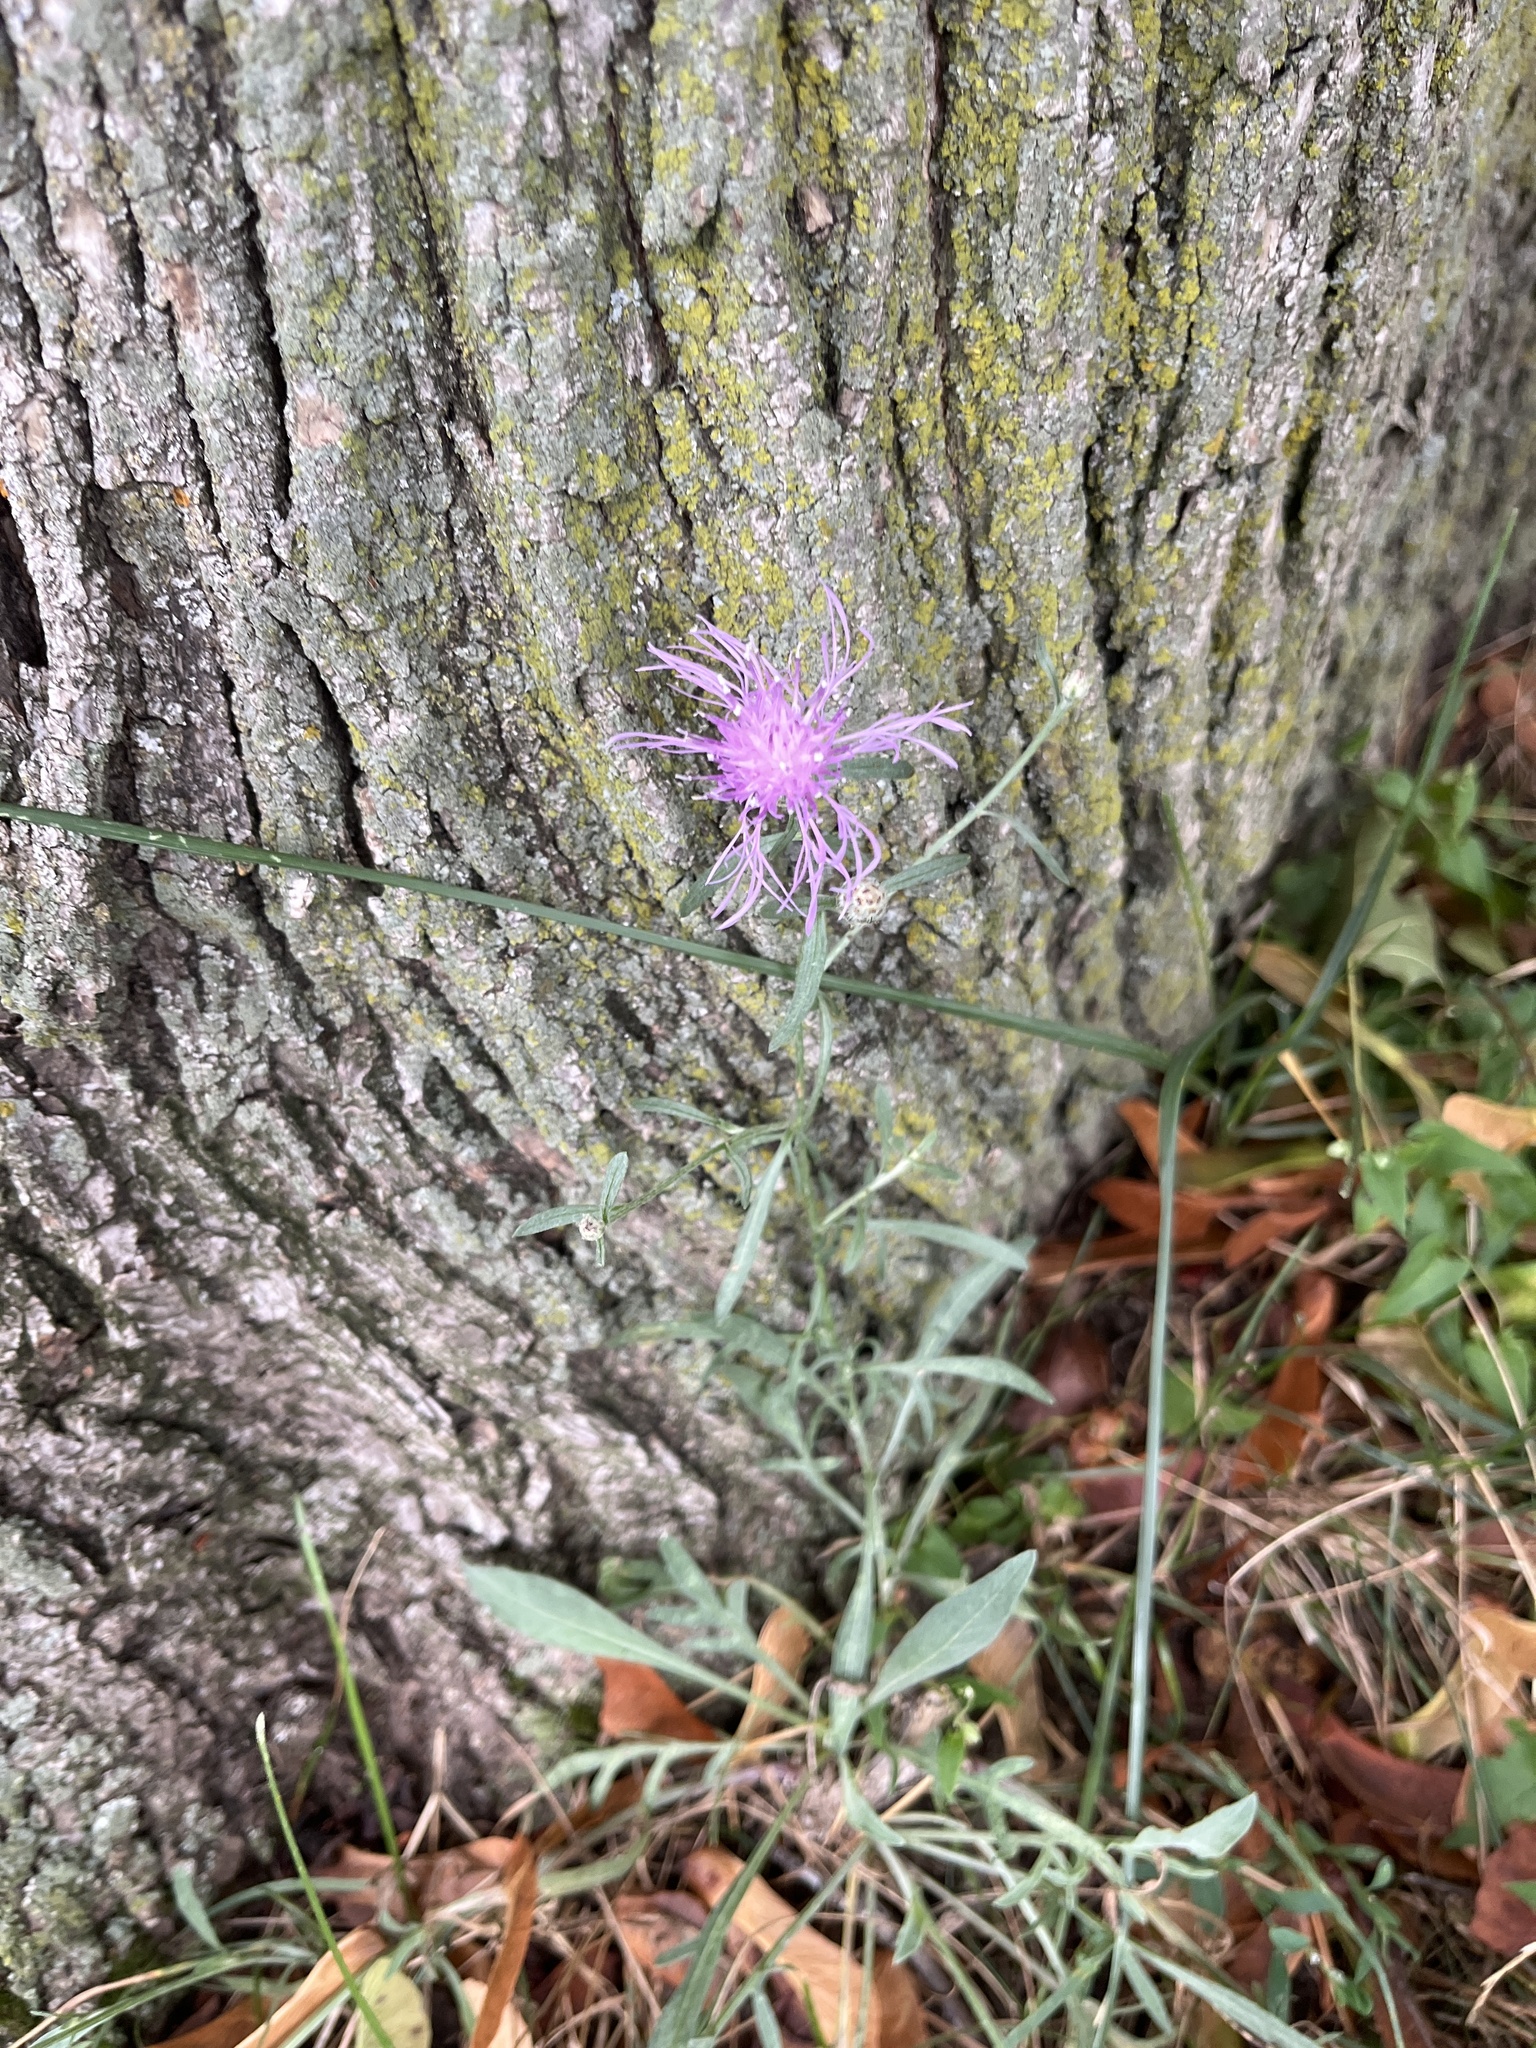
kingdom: Plantae
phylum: Tracheophyta
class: Magnoliopsida
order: Asterales
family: Asteraceae
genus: Centaurea
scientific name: Centaurea stoebe
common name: Spotted knapweed
